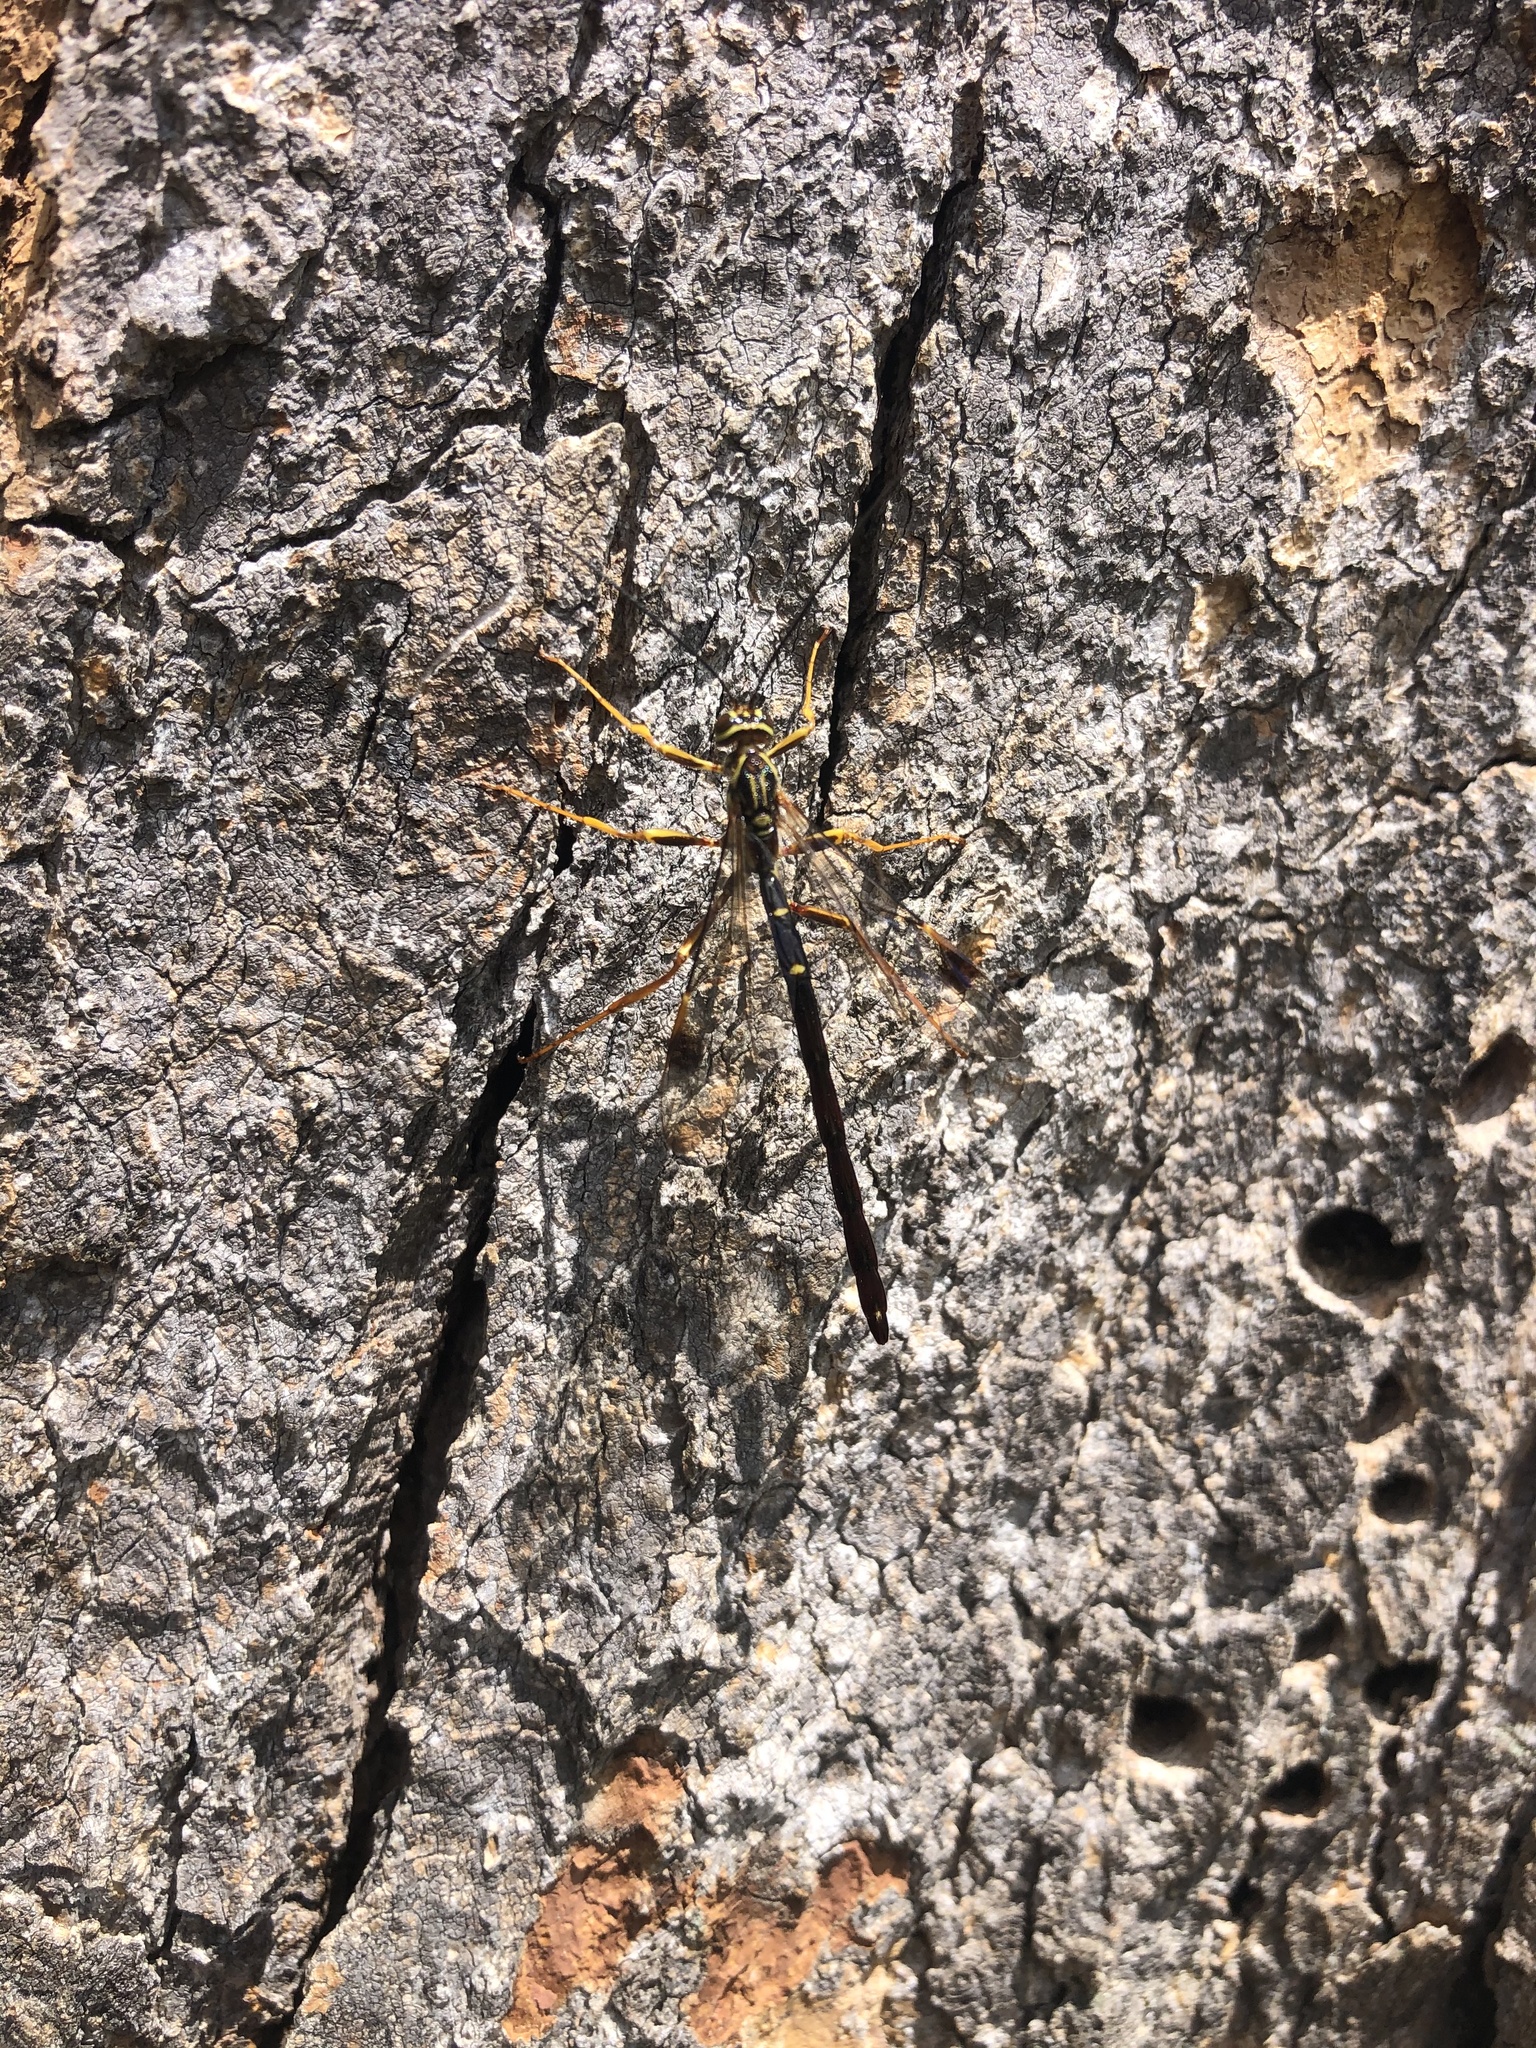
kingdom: Animalia
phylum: Arthropoda
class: Insecta
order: Hymenoptera
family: Ichneumonidae
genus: Megarhyssa
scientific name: Megarhyssa macrura
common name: Long-tailed giant ichneumonid wasp
